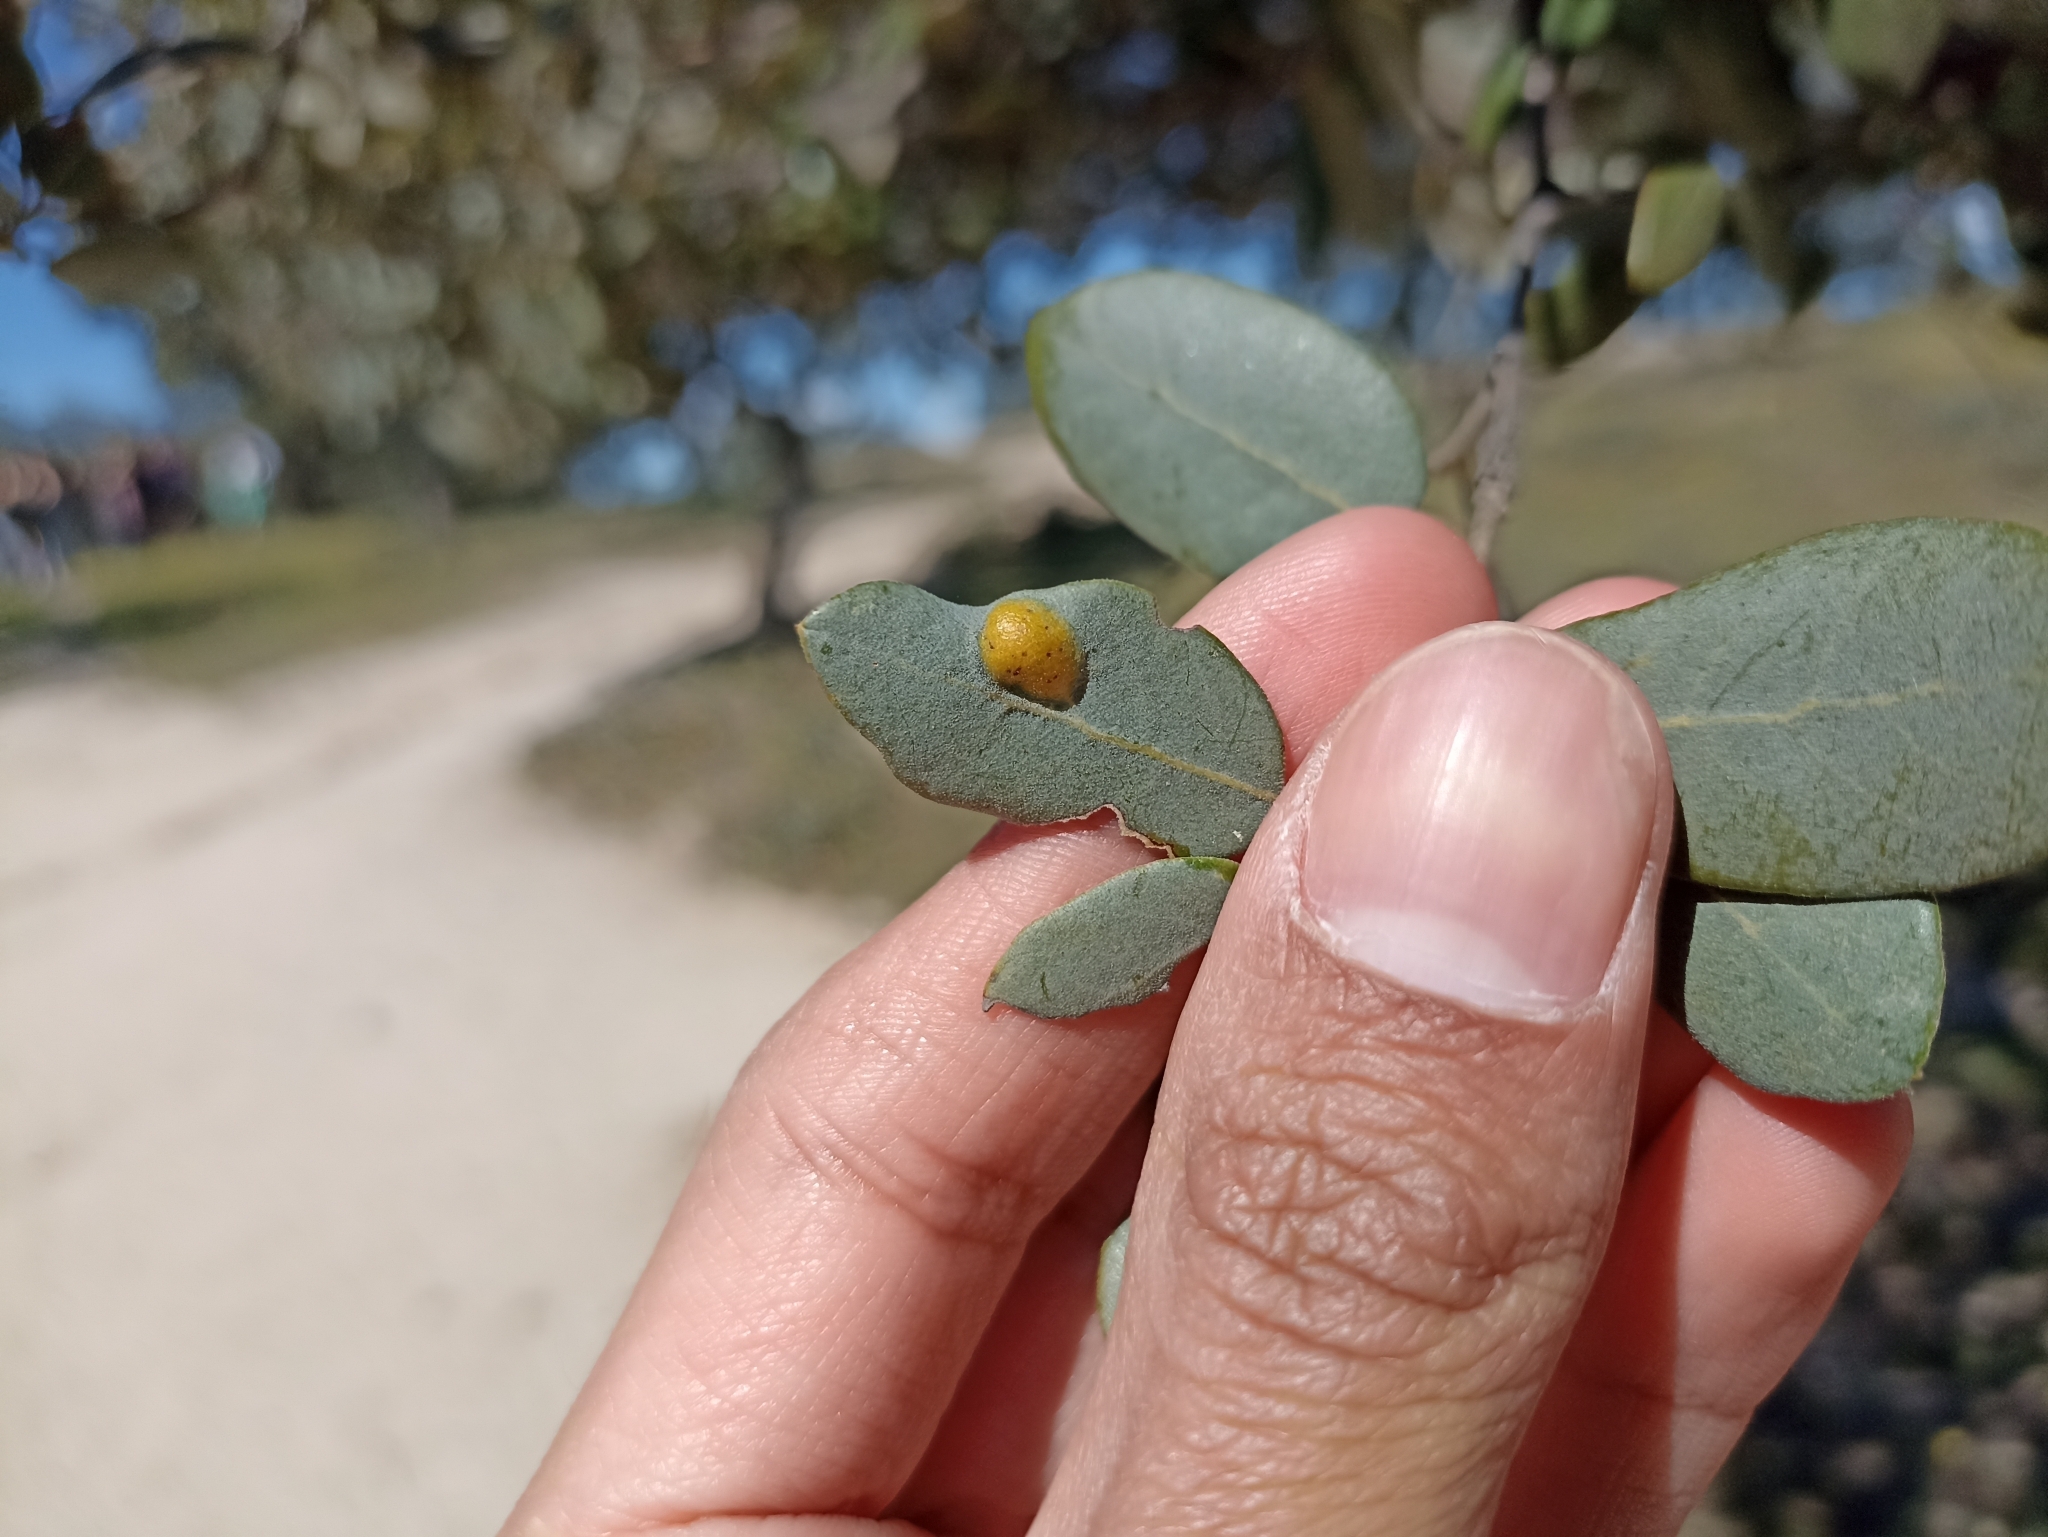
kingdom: Animalia
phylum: Arthropoda
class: Insecta
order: Hymenoptera
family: Cynipidae
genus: Plagiotrochus
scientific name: Plagiotrochus australis
